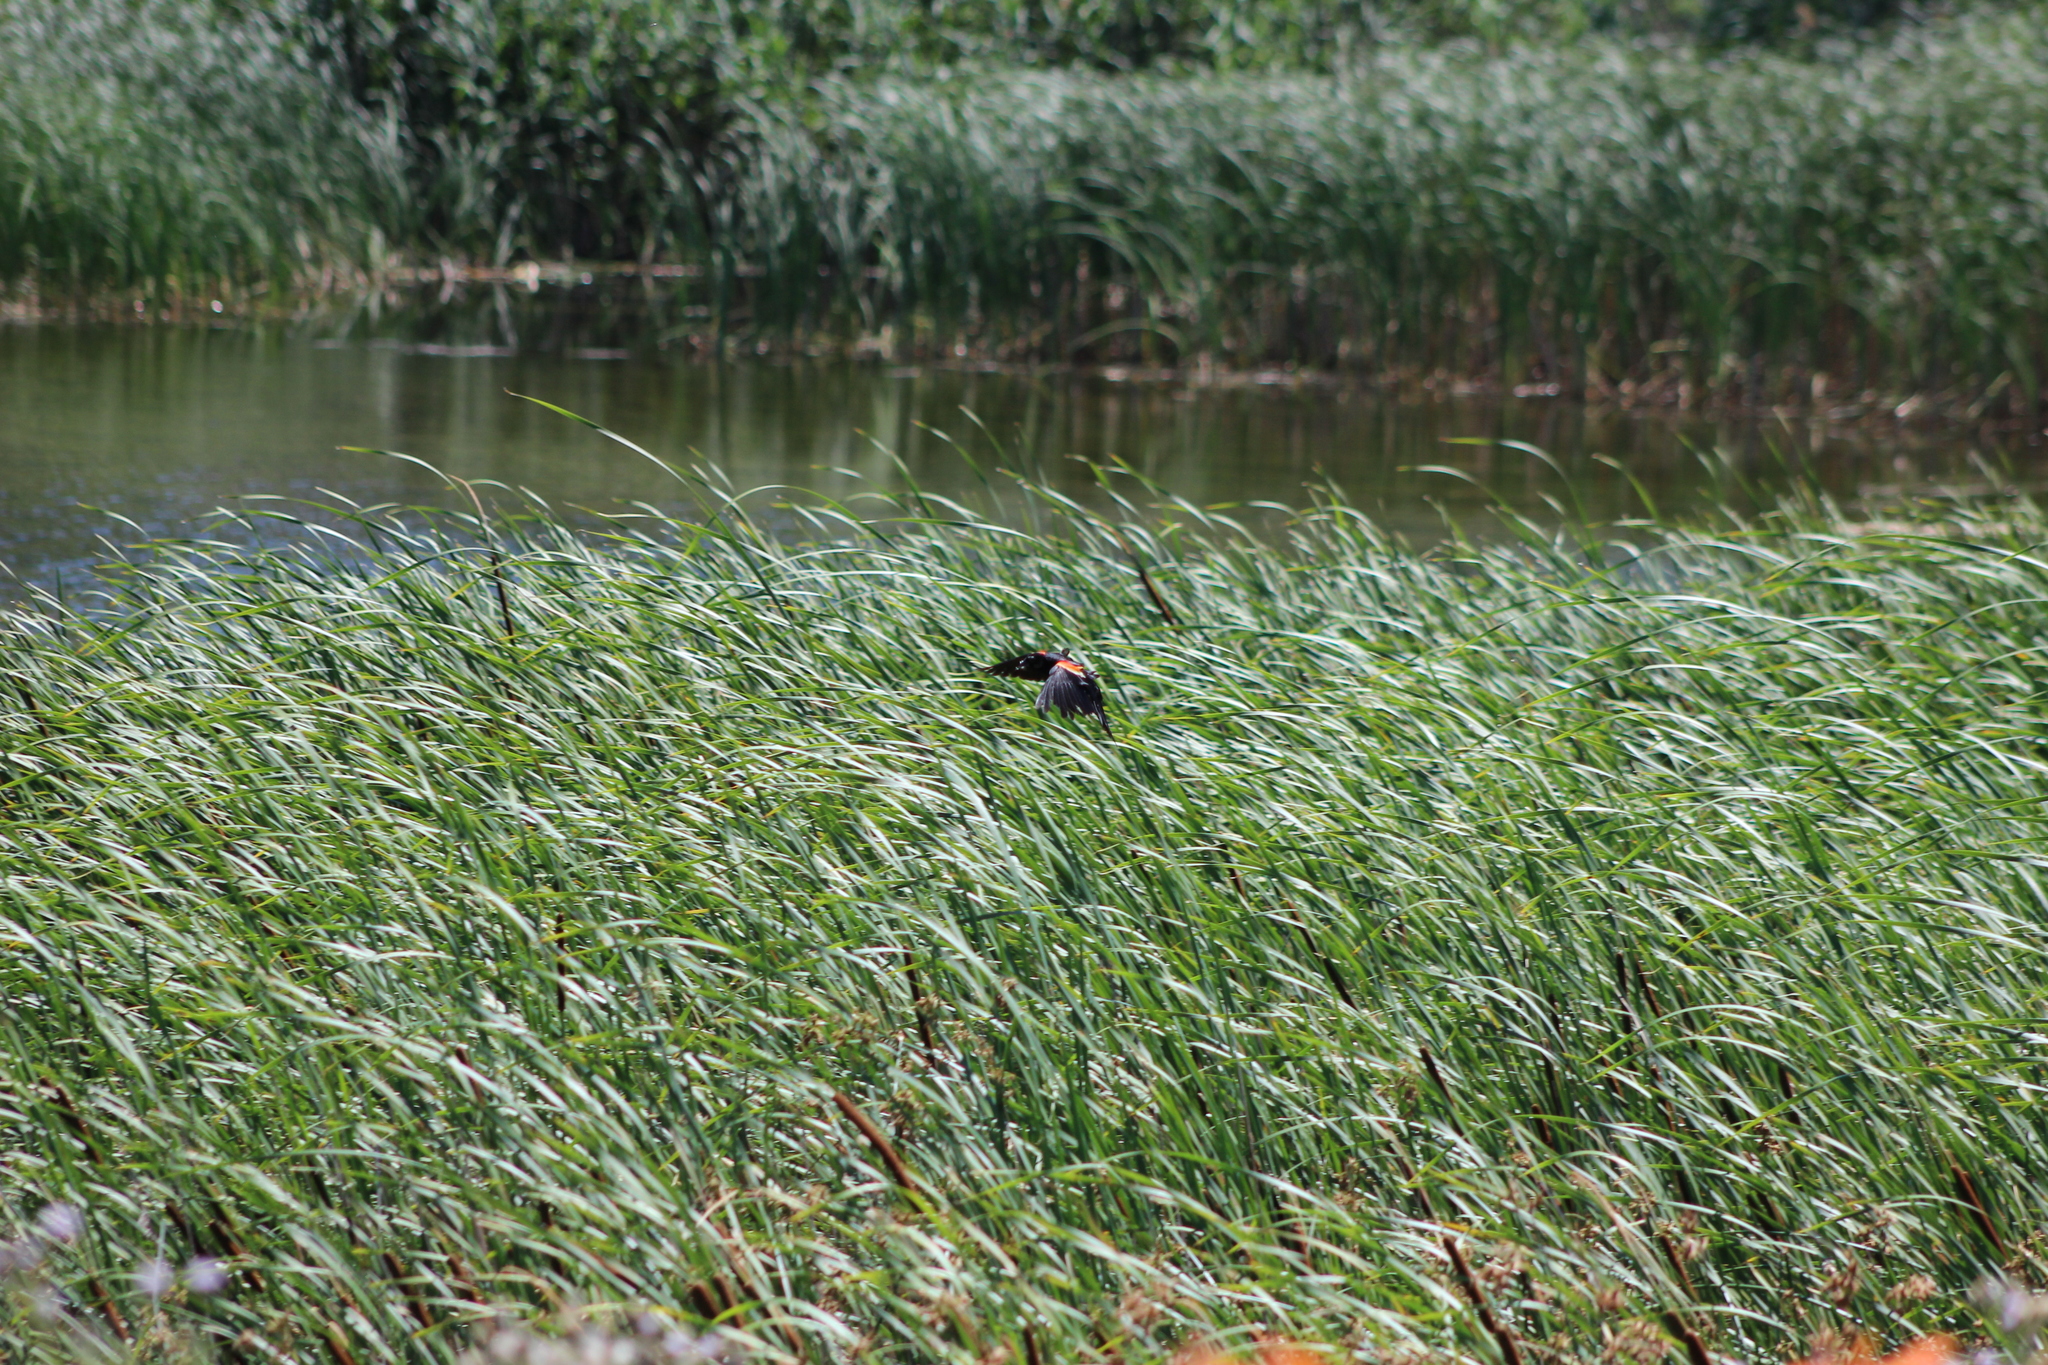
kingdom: Animalia
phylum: Chordata
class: Aves
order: Passeriformes
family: Icteridae
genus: Agelaius
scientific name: Agelaius phoeniceus
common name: Red-winged blackbird
